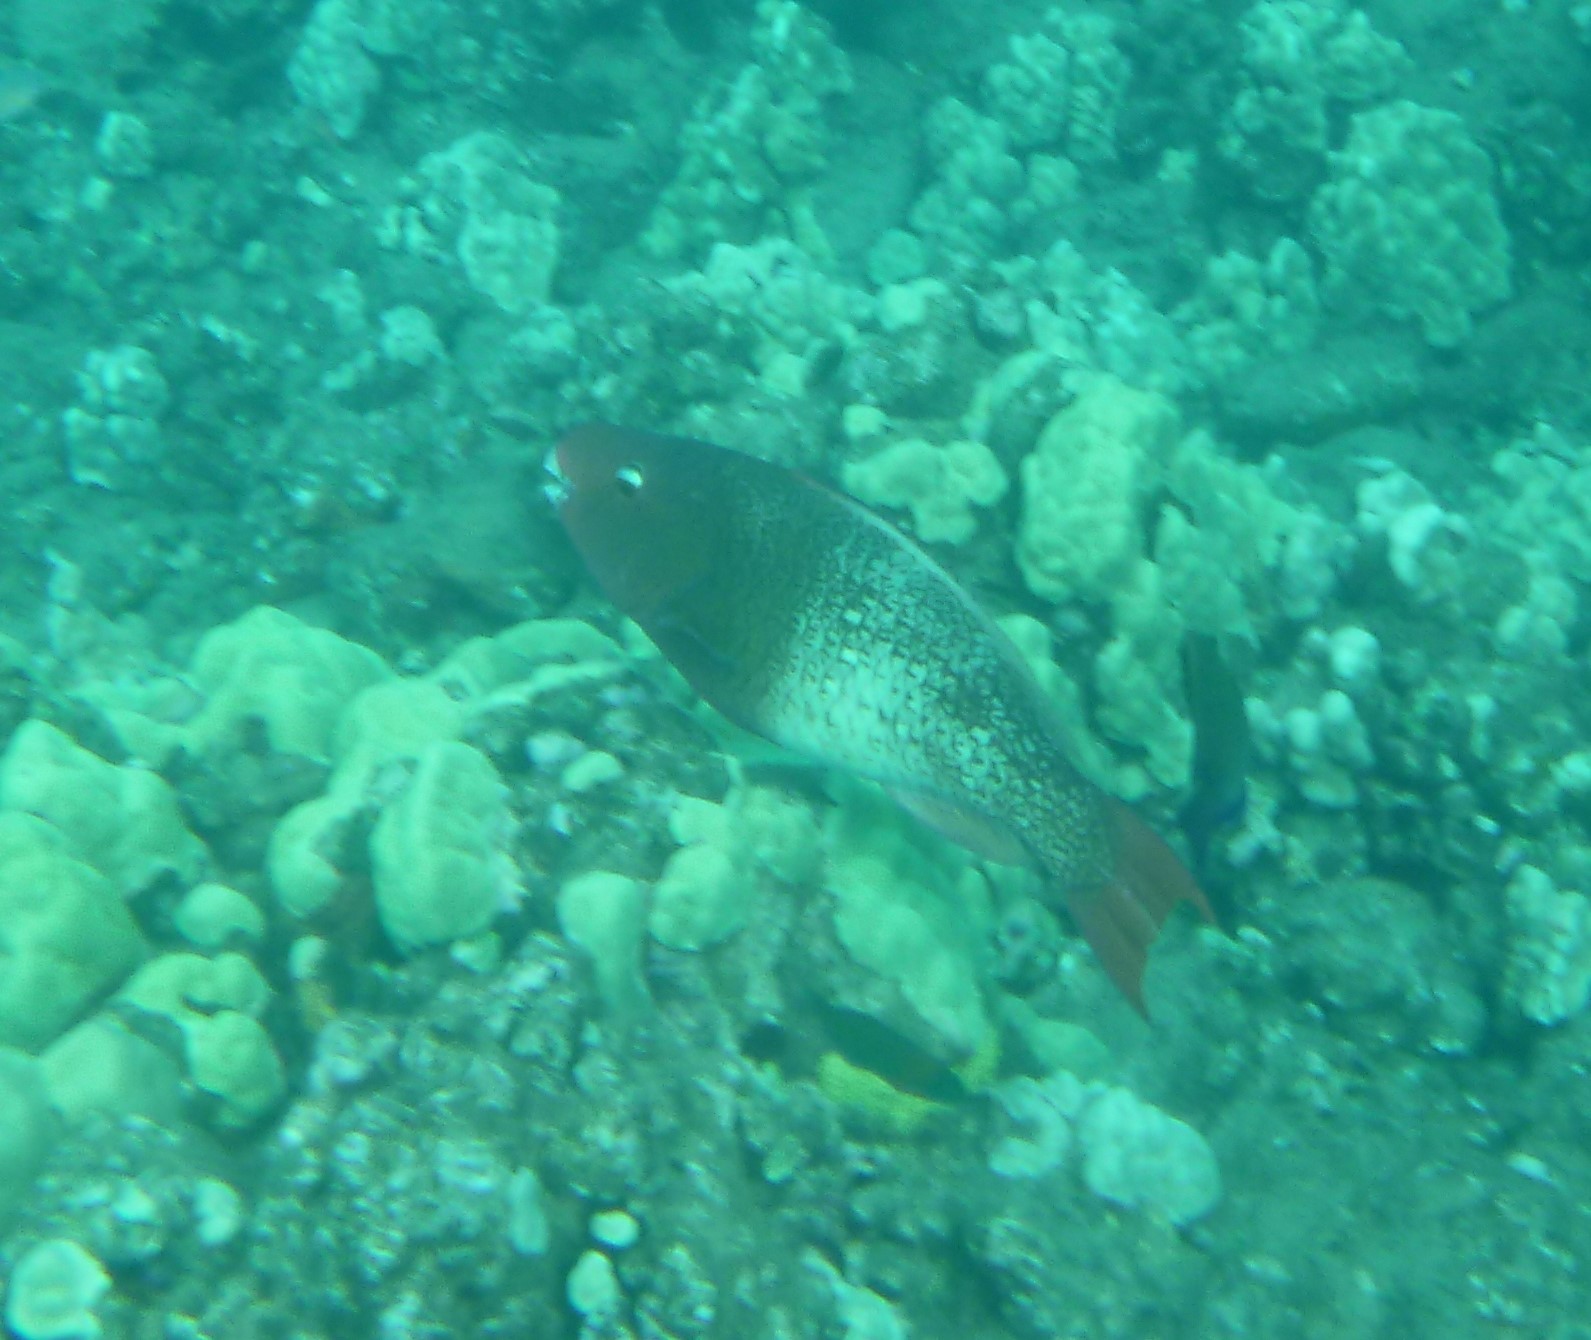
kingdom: Animalia
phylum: Chordata
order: Perciformes
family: Scaridae
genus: Scarus
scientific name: Scarus rubroviolaceus
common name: Ember parrotfish
